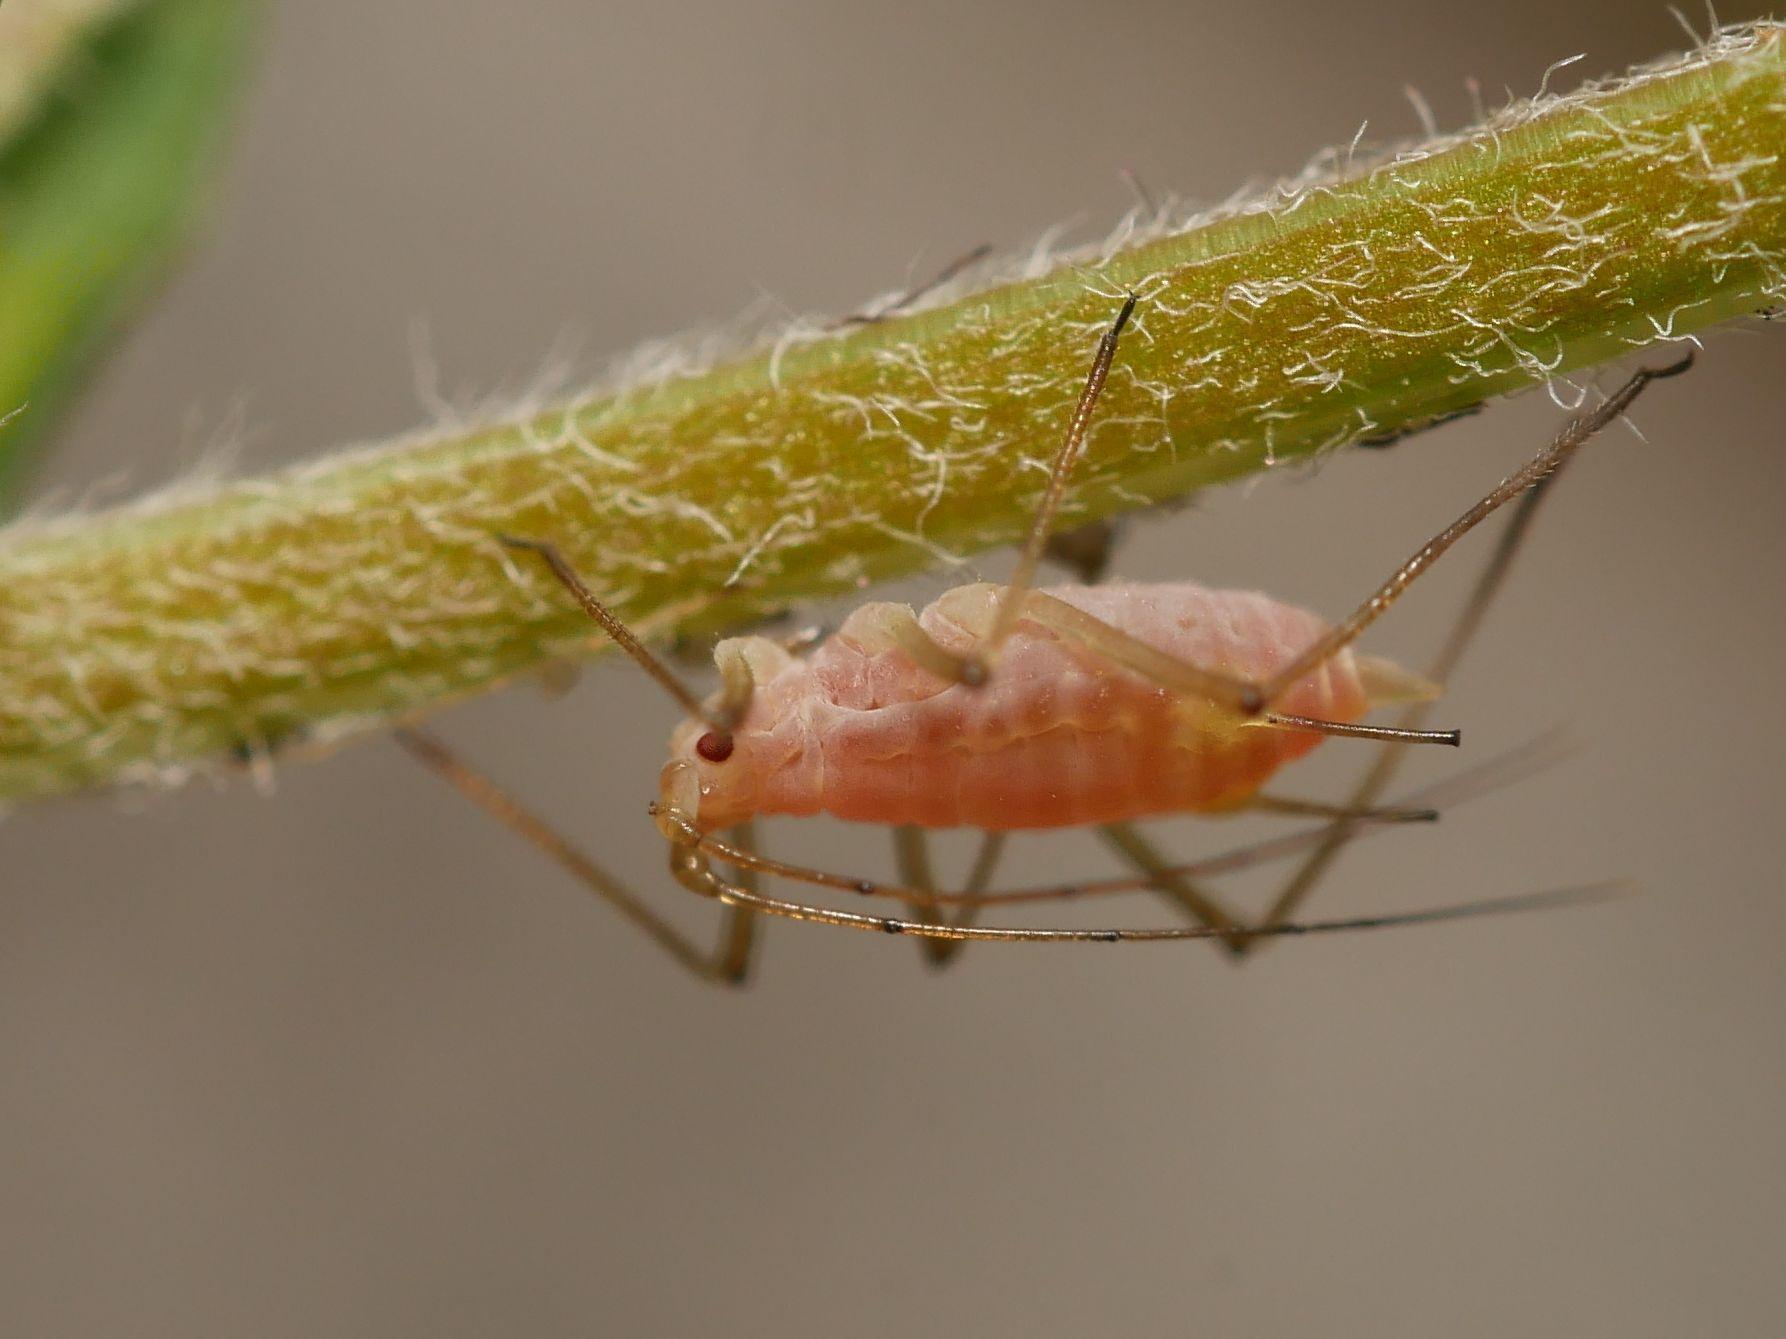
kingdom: Animalia
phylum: Arthropoda
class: Insecta
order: Hemiptera
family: Aphididae
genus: Acyrthosiphon
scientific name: Acyrthosiphon pisum
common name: Pea aphid
